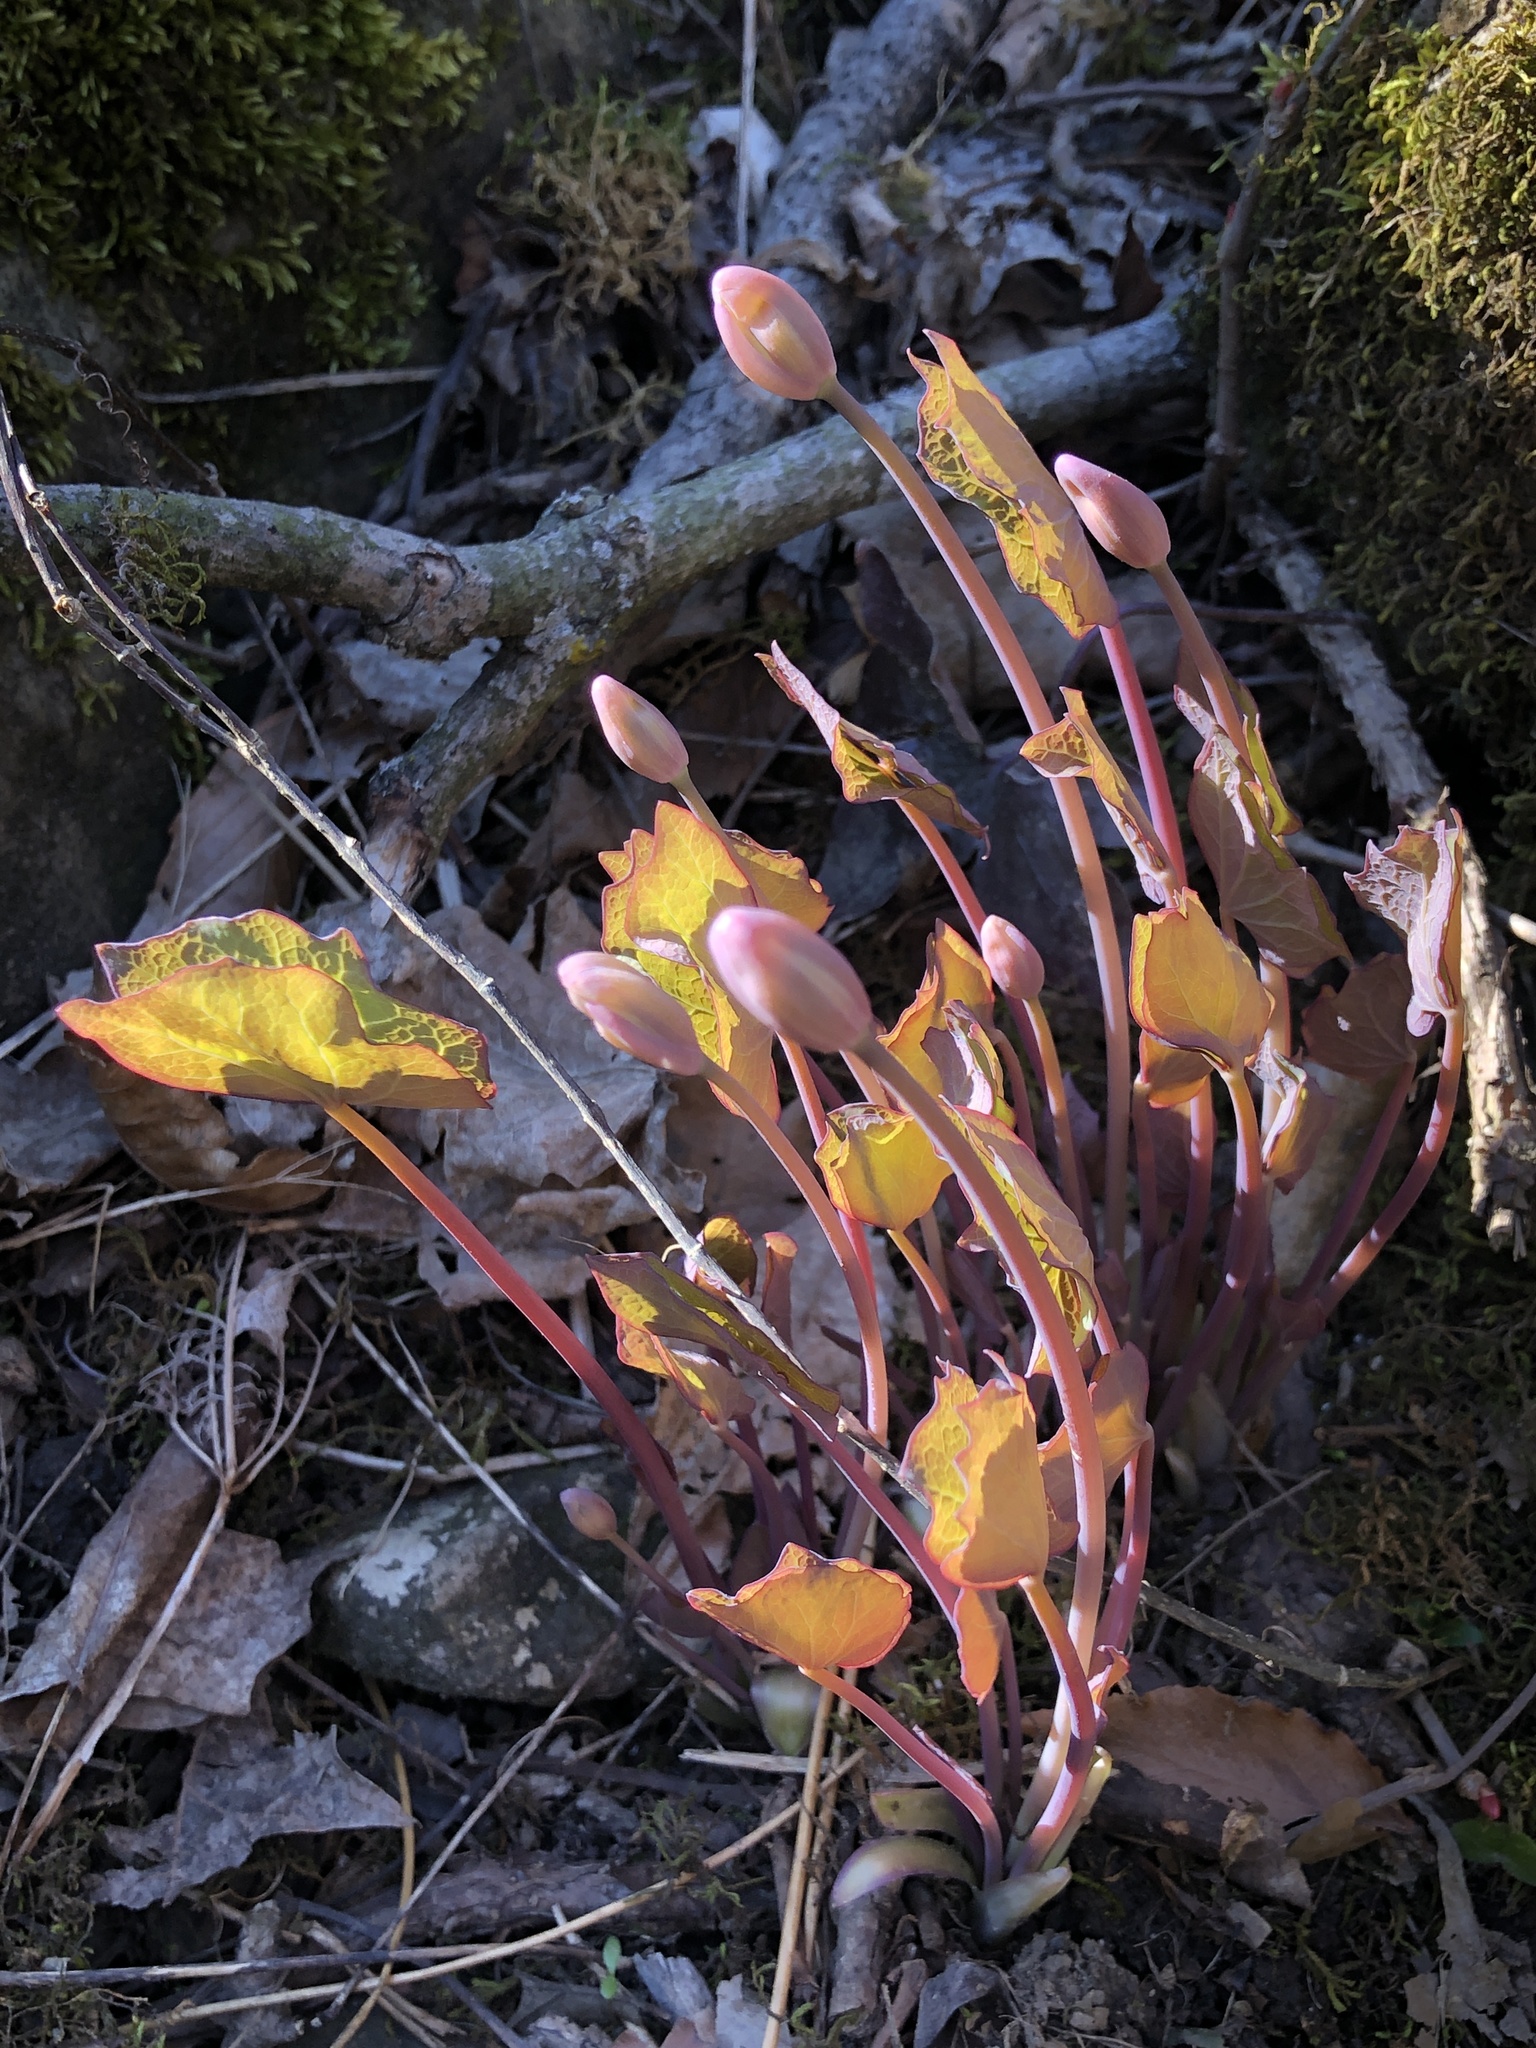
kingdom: Plantae
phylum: Tracheophyta
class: Magnoliopsida
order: Ranunculales
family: Berberidaceae
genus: Jeffersonia
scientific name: Jeffersonia diphylla
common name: Rheumatism-root
